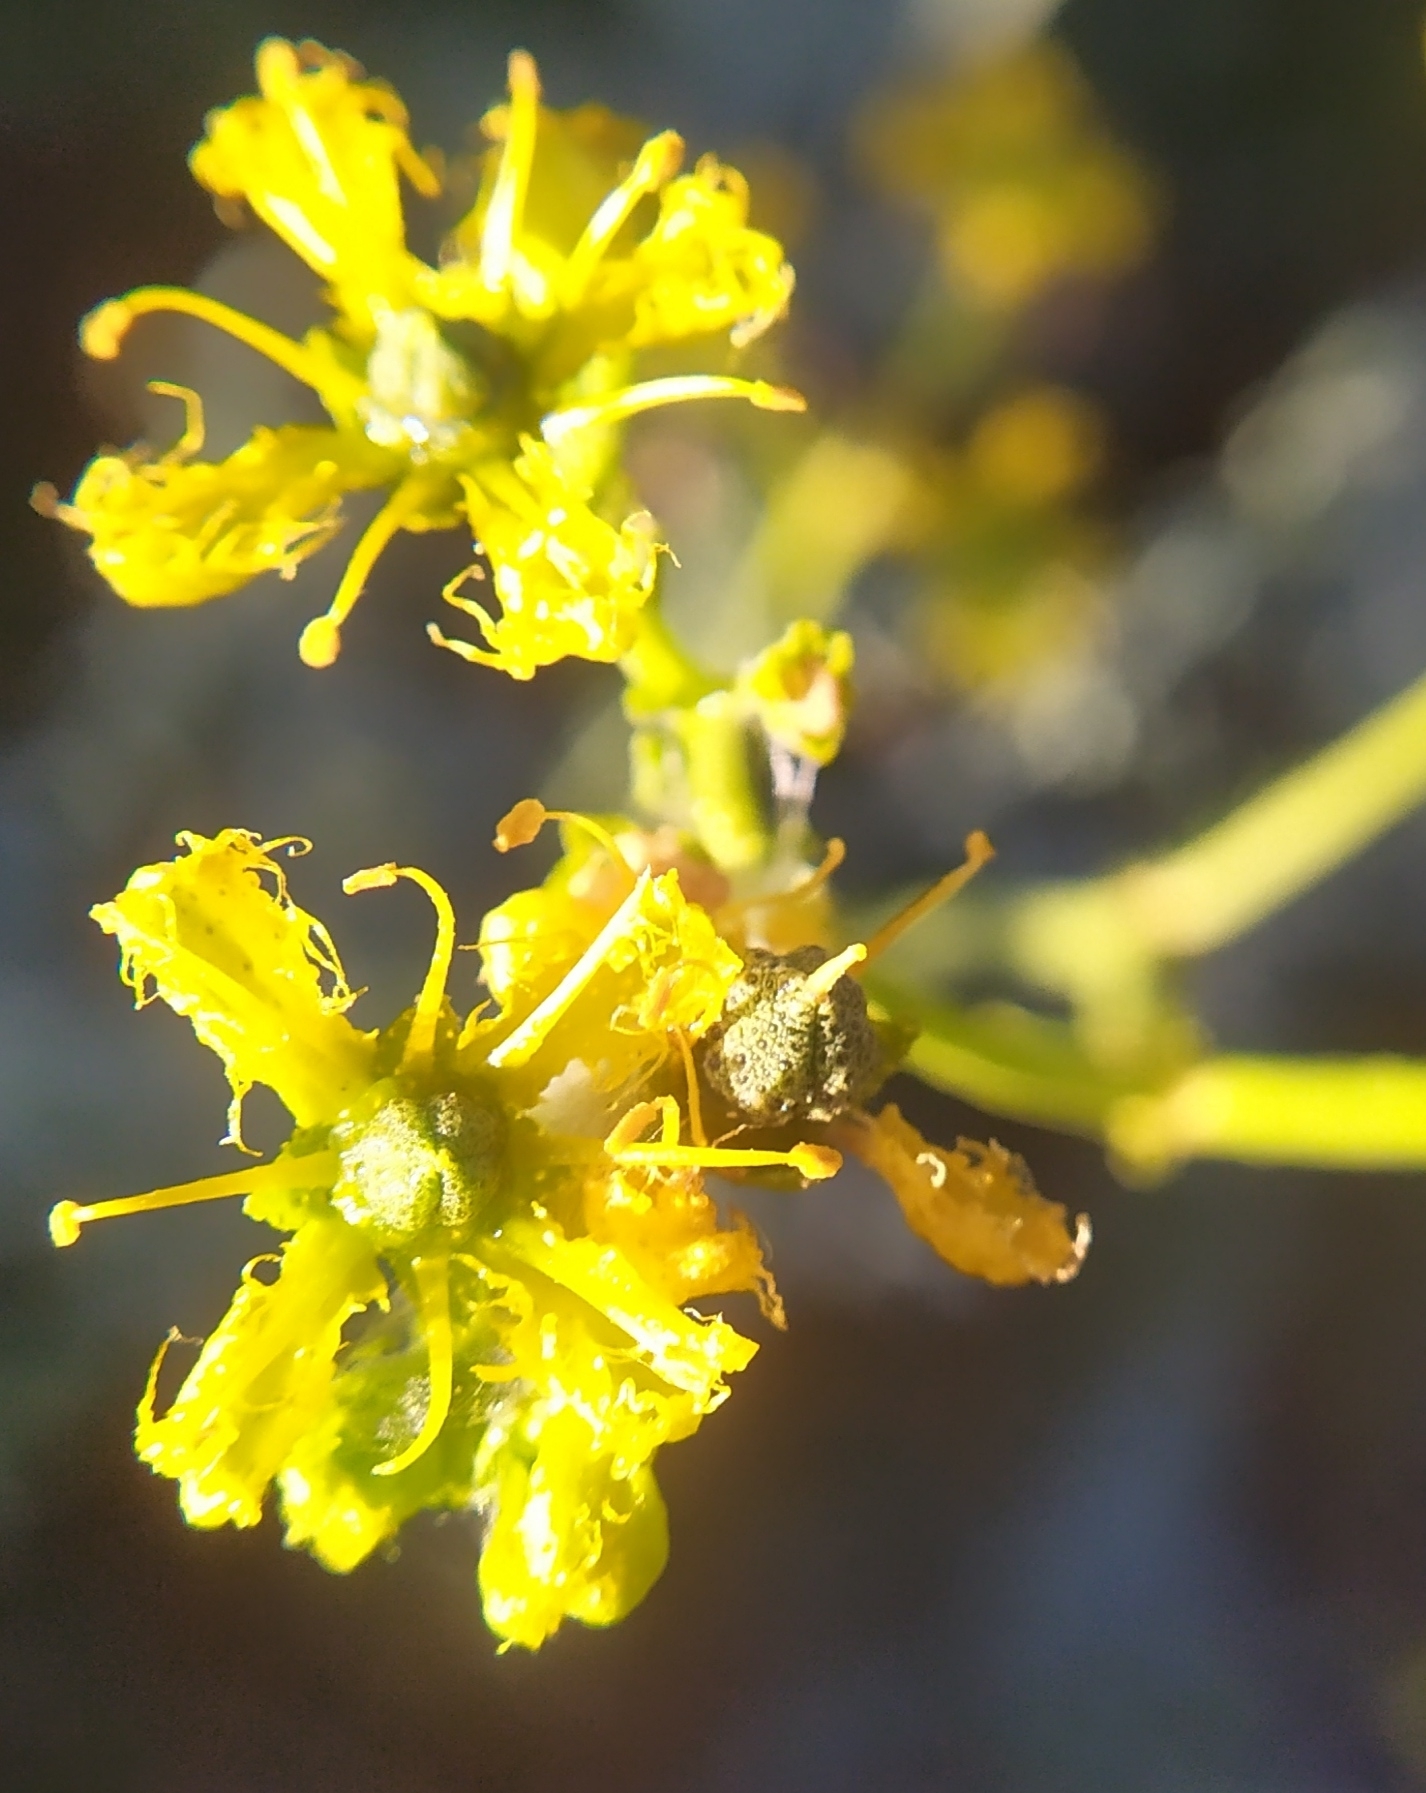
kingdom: Plantae
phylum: Tracheophyta
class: Magnoliopsida
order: Sapindales
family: Rutaceae
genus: Ruta
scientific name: Ruta angustifolia
